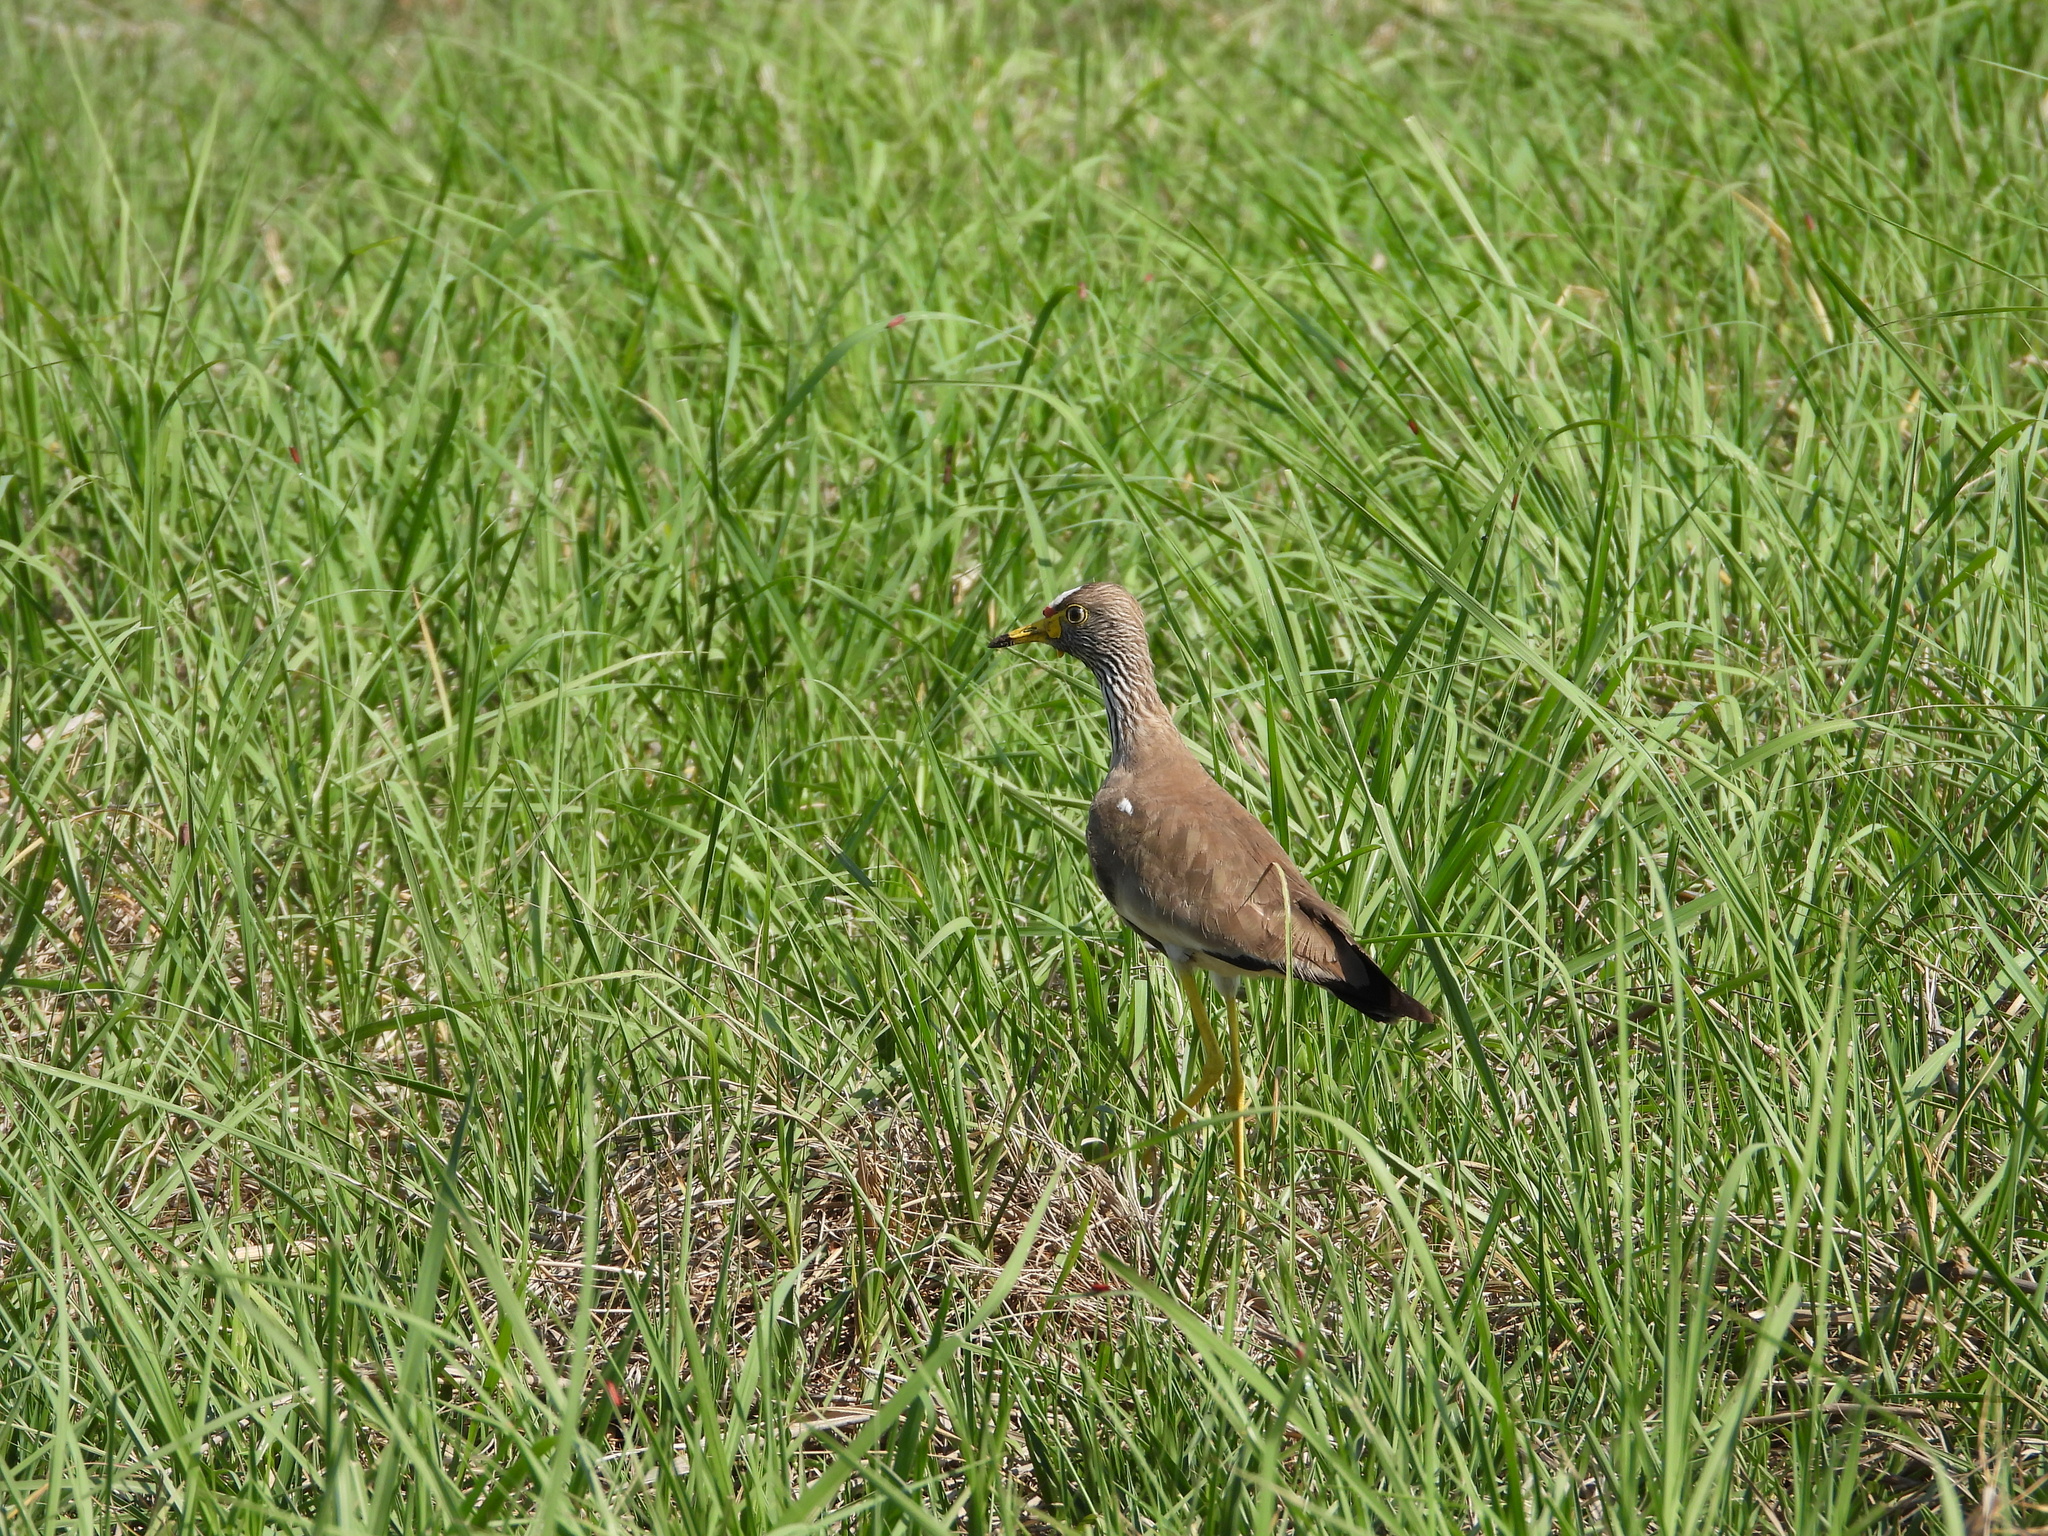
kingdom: Animalia
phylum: Chordata
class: Aves
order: Charadriiformes
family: Charadriidae
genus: Vanellus
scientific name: Vanellus senegallus
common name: African wattled lapwing
